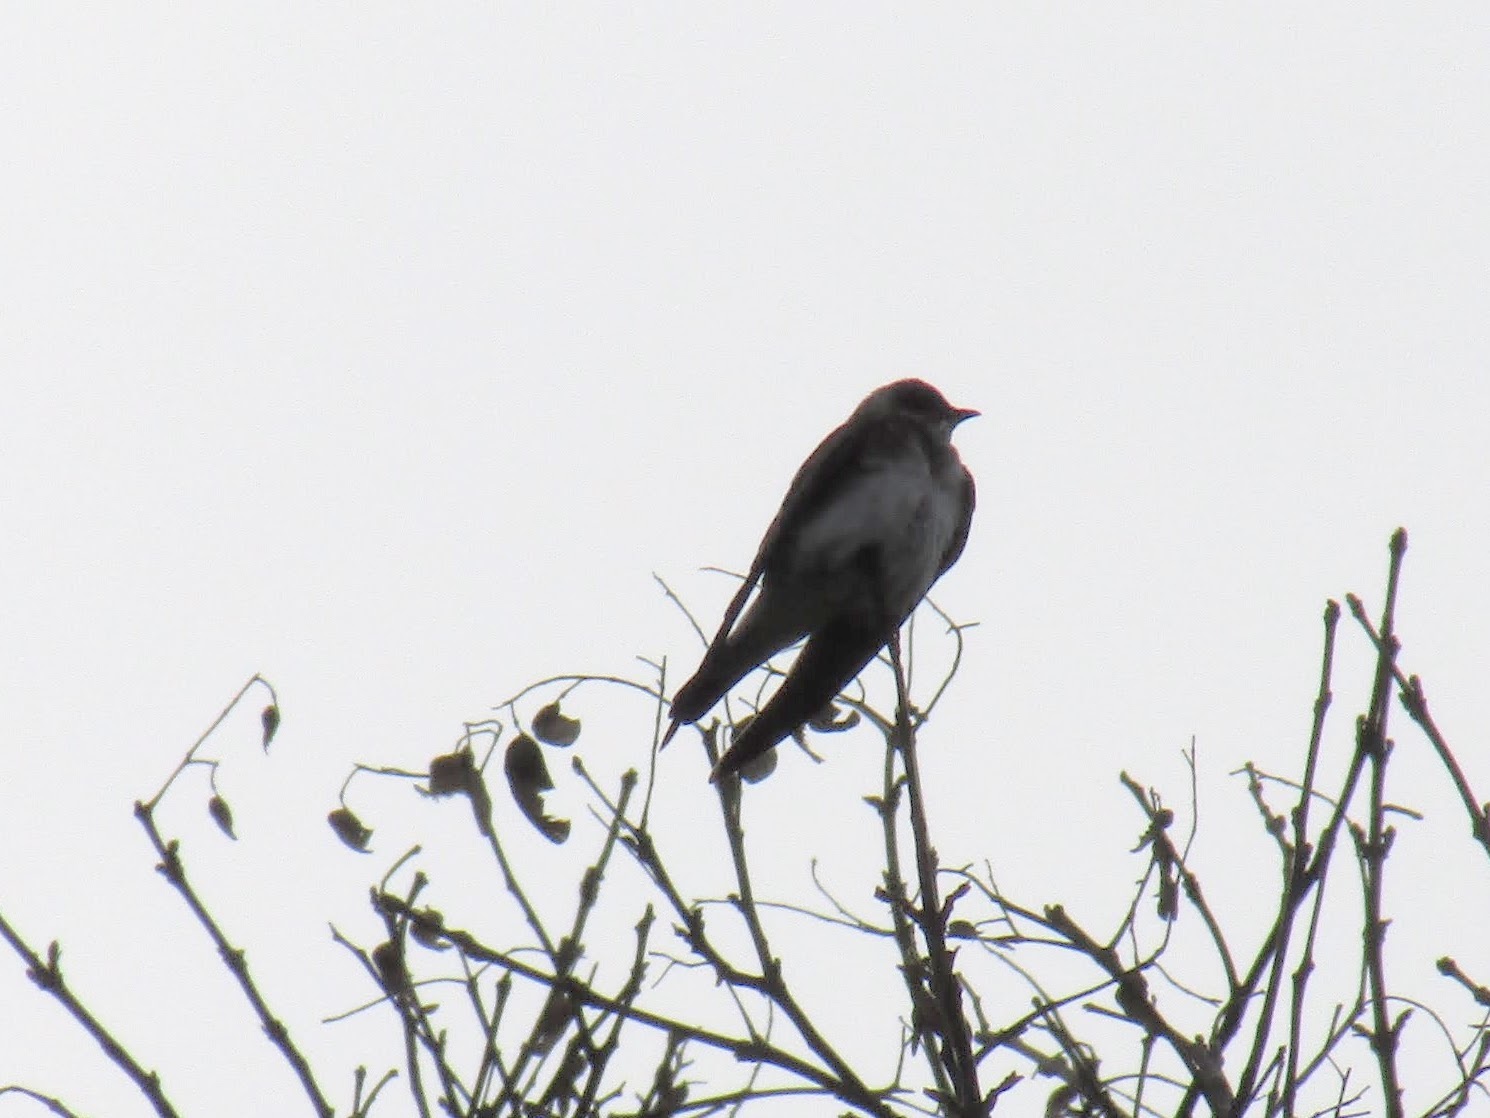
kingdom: Animalia
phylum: Chordata
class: Aves
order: Passeriformes
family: Hirundinidae
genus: Progne
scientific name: Progne tapera
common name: Brown-chested martin
